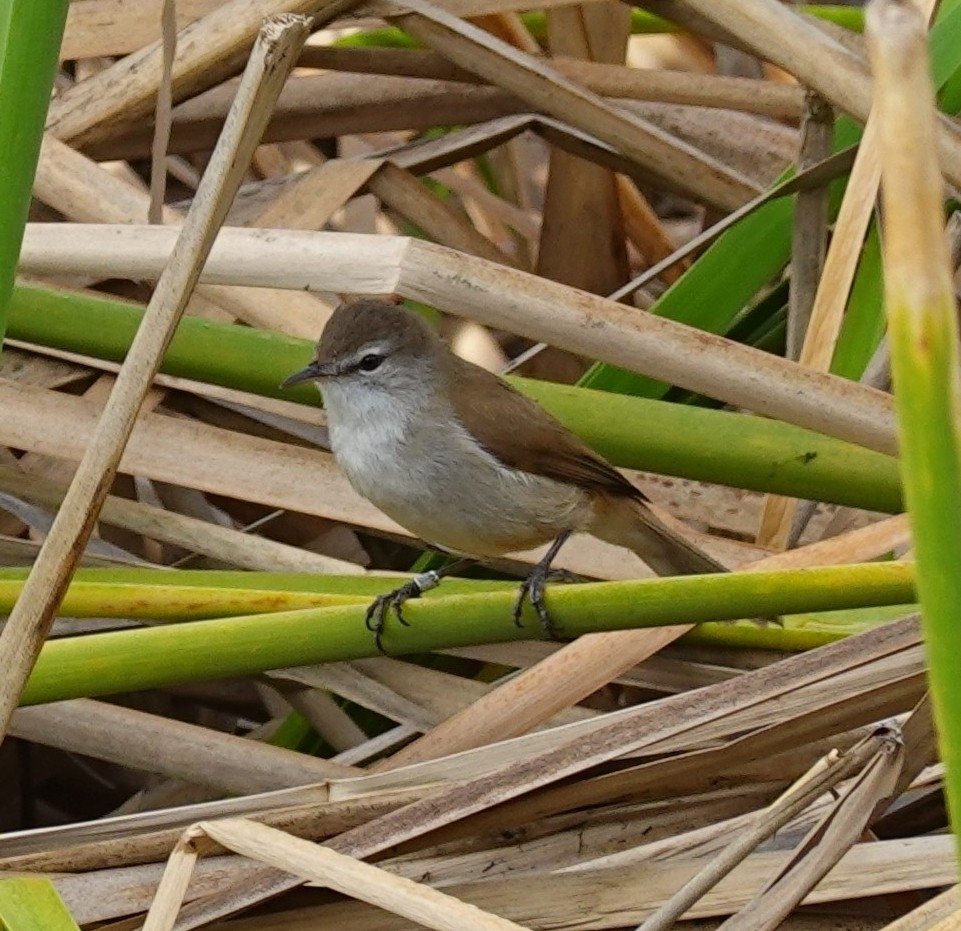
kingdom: Animalia
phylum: Chordata
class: Aves
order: Passeriformes
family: Acrocephalidae
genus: Acrocephalus
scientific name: Acrocephalus gracilirostris
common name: Lesser swamp warbler
